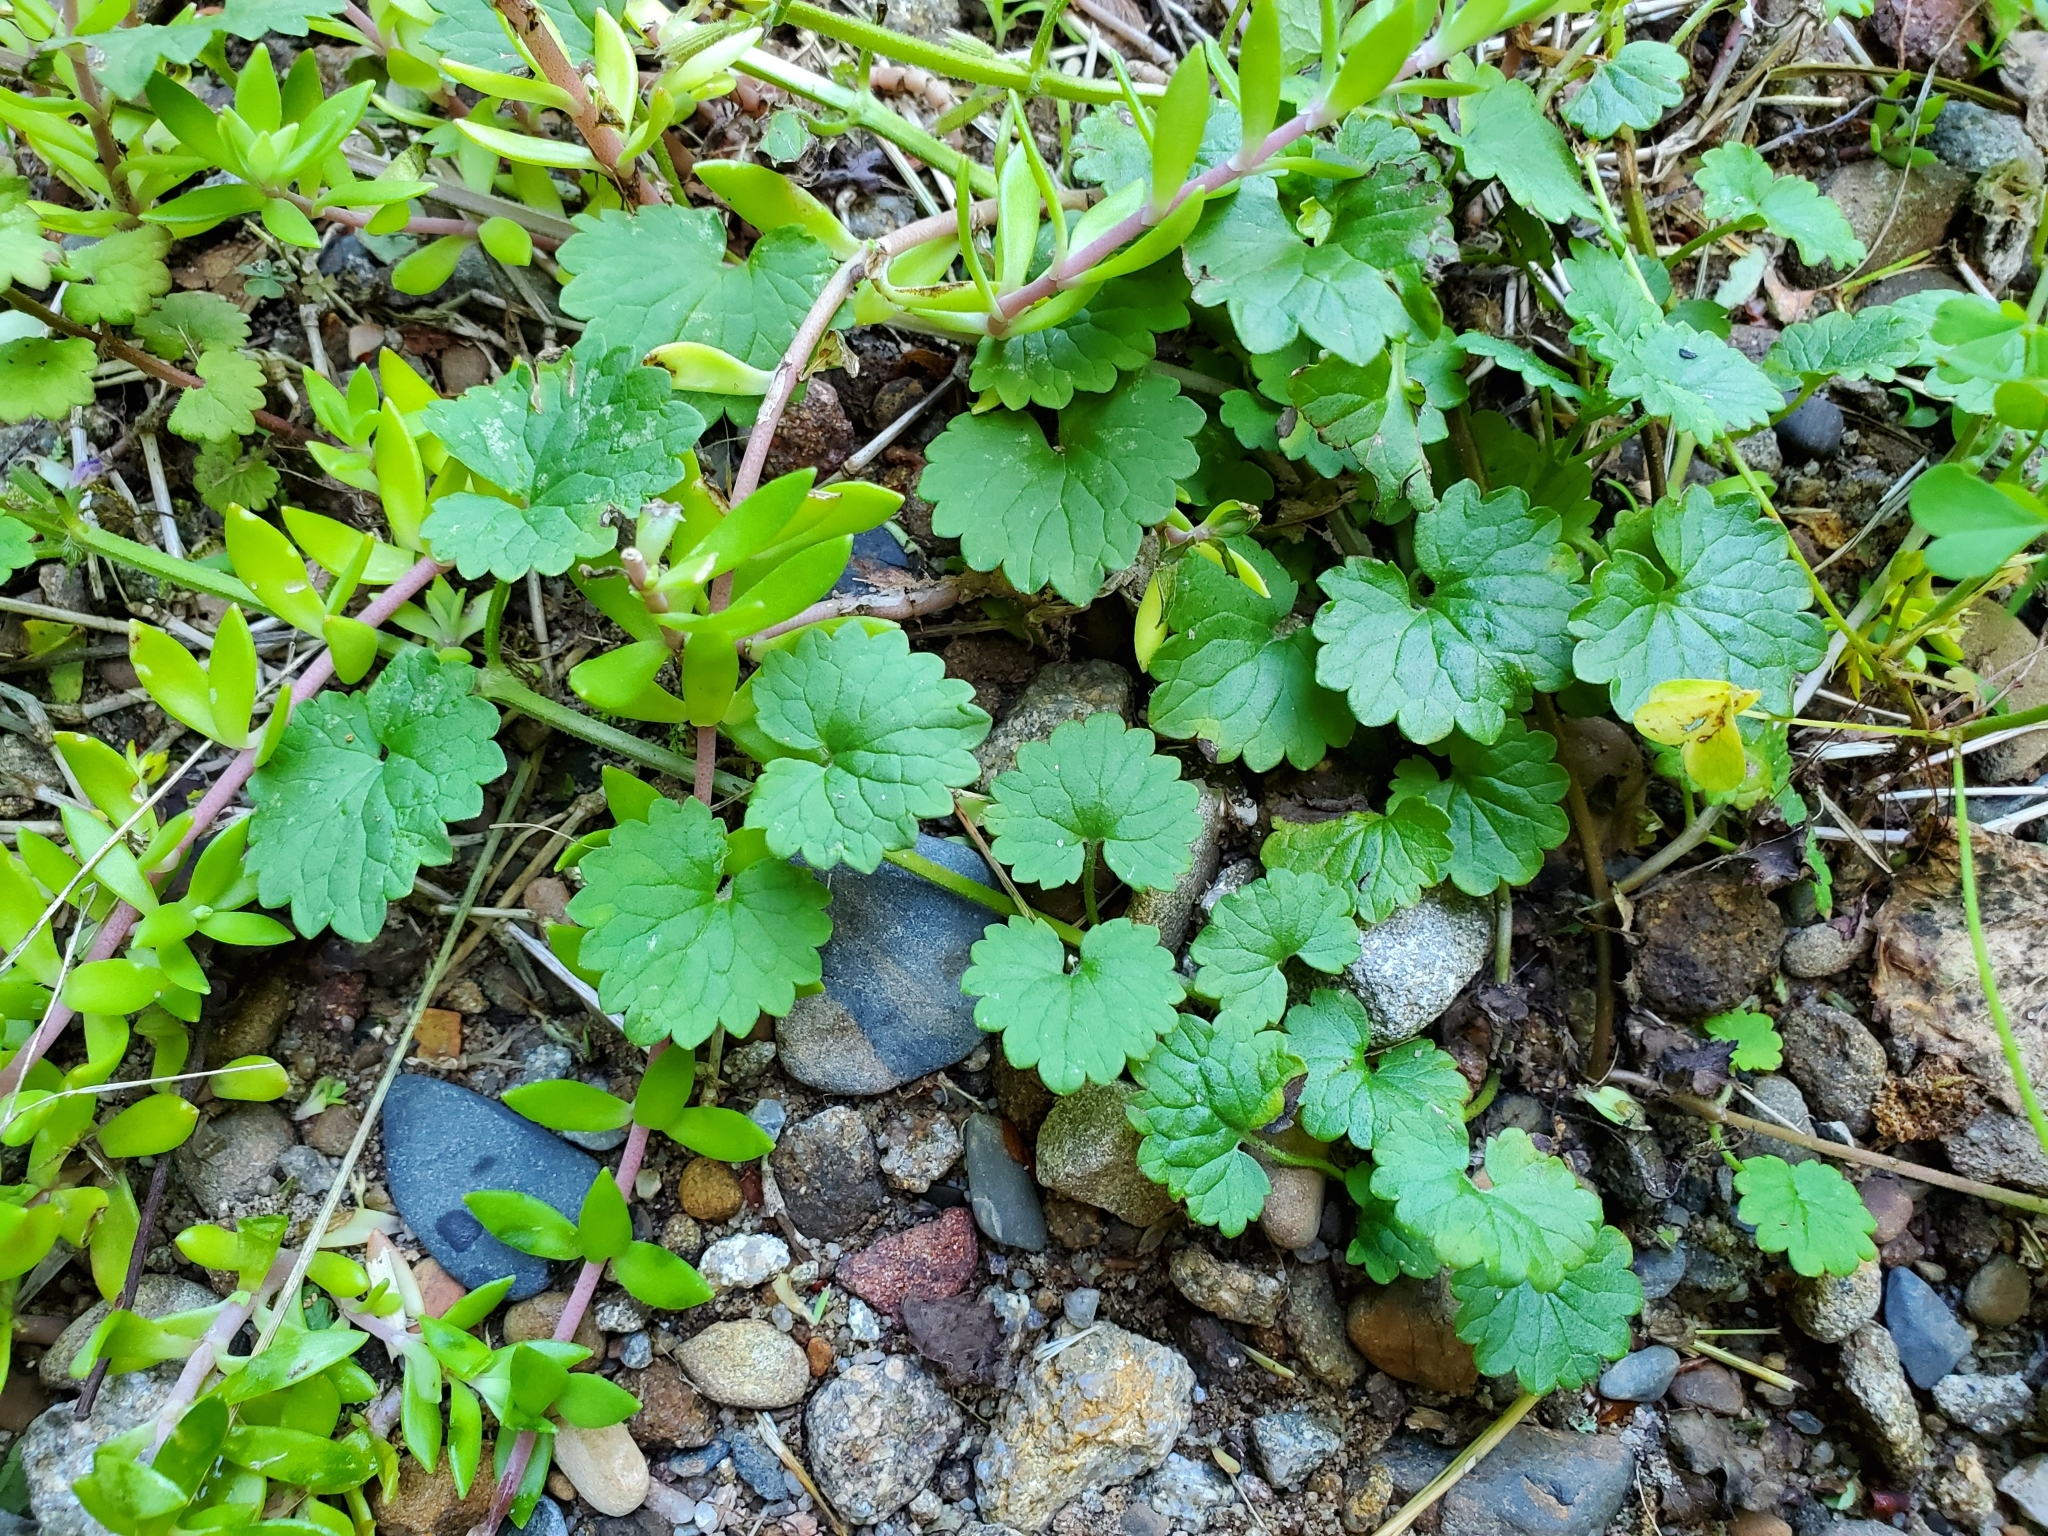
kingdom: Plantae
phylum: Tracheophyta
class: Magnoliopsida
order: Lamiales
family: Lamiaceae
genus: Glechoma
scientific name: Glechoma hederacea
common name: Ground ivy
